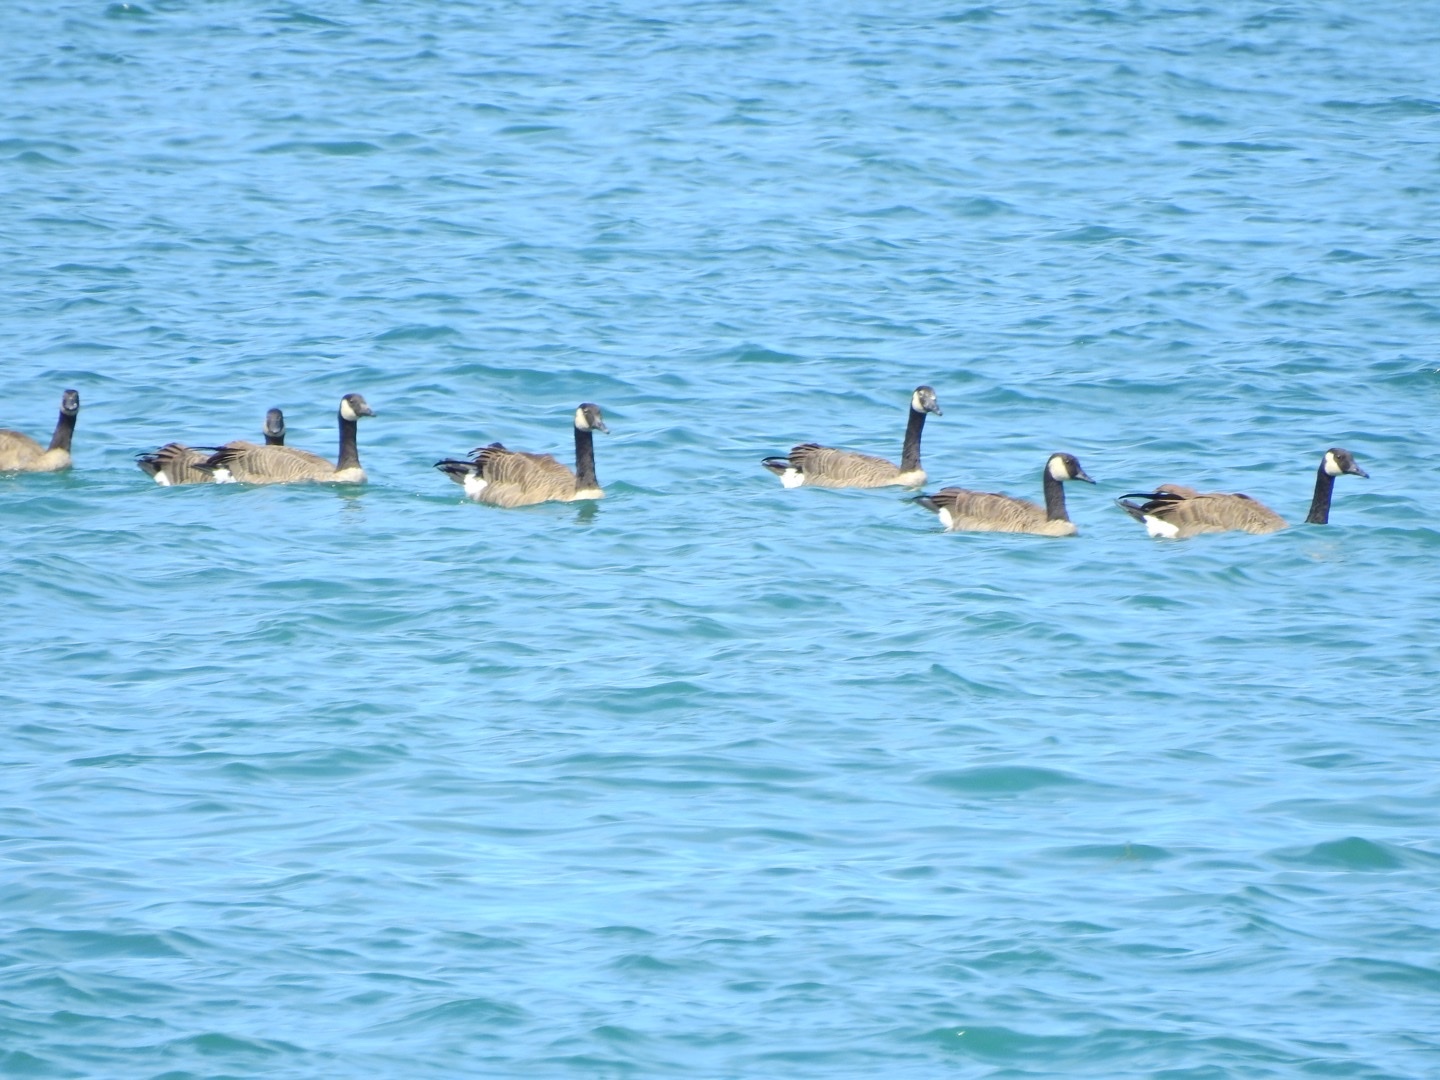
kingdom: Animalia
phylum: Chordata
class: Aves
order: Anseriformes
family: Anatidae
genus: Branta
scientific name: Branta canadensis
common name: Canada goose
